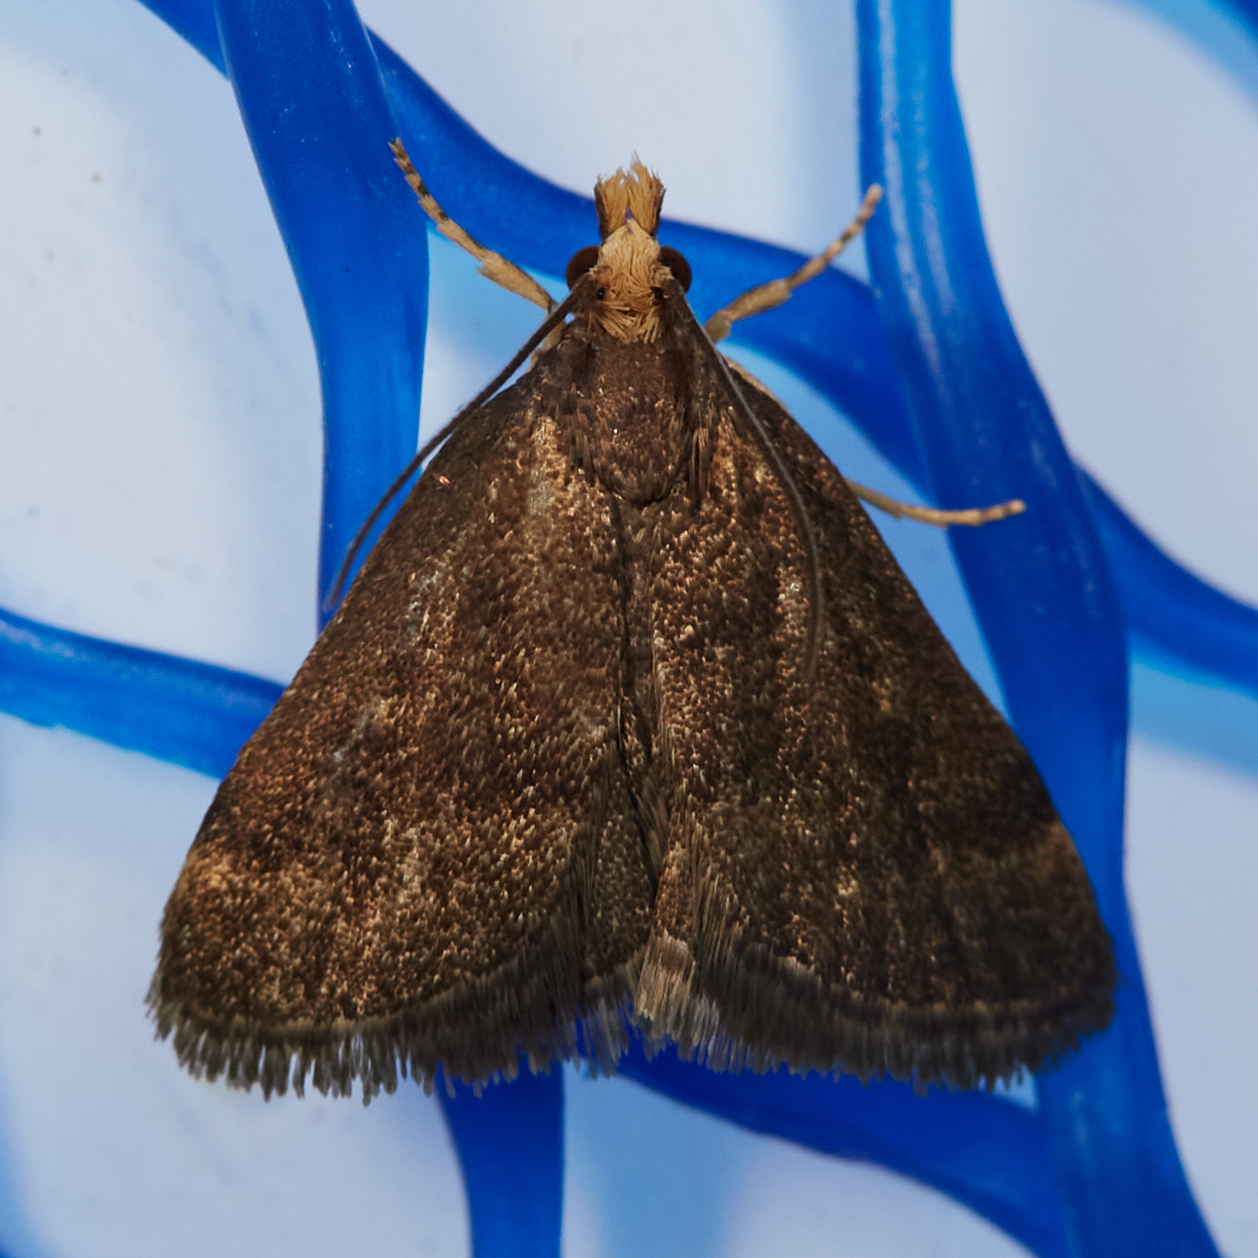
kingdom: Animalia
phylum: Arthropoda
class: Insecta
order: Lepidoptera
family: Crambidae
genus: Pyrausta
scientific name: Pyrausta merrickalis
